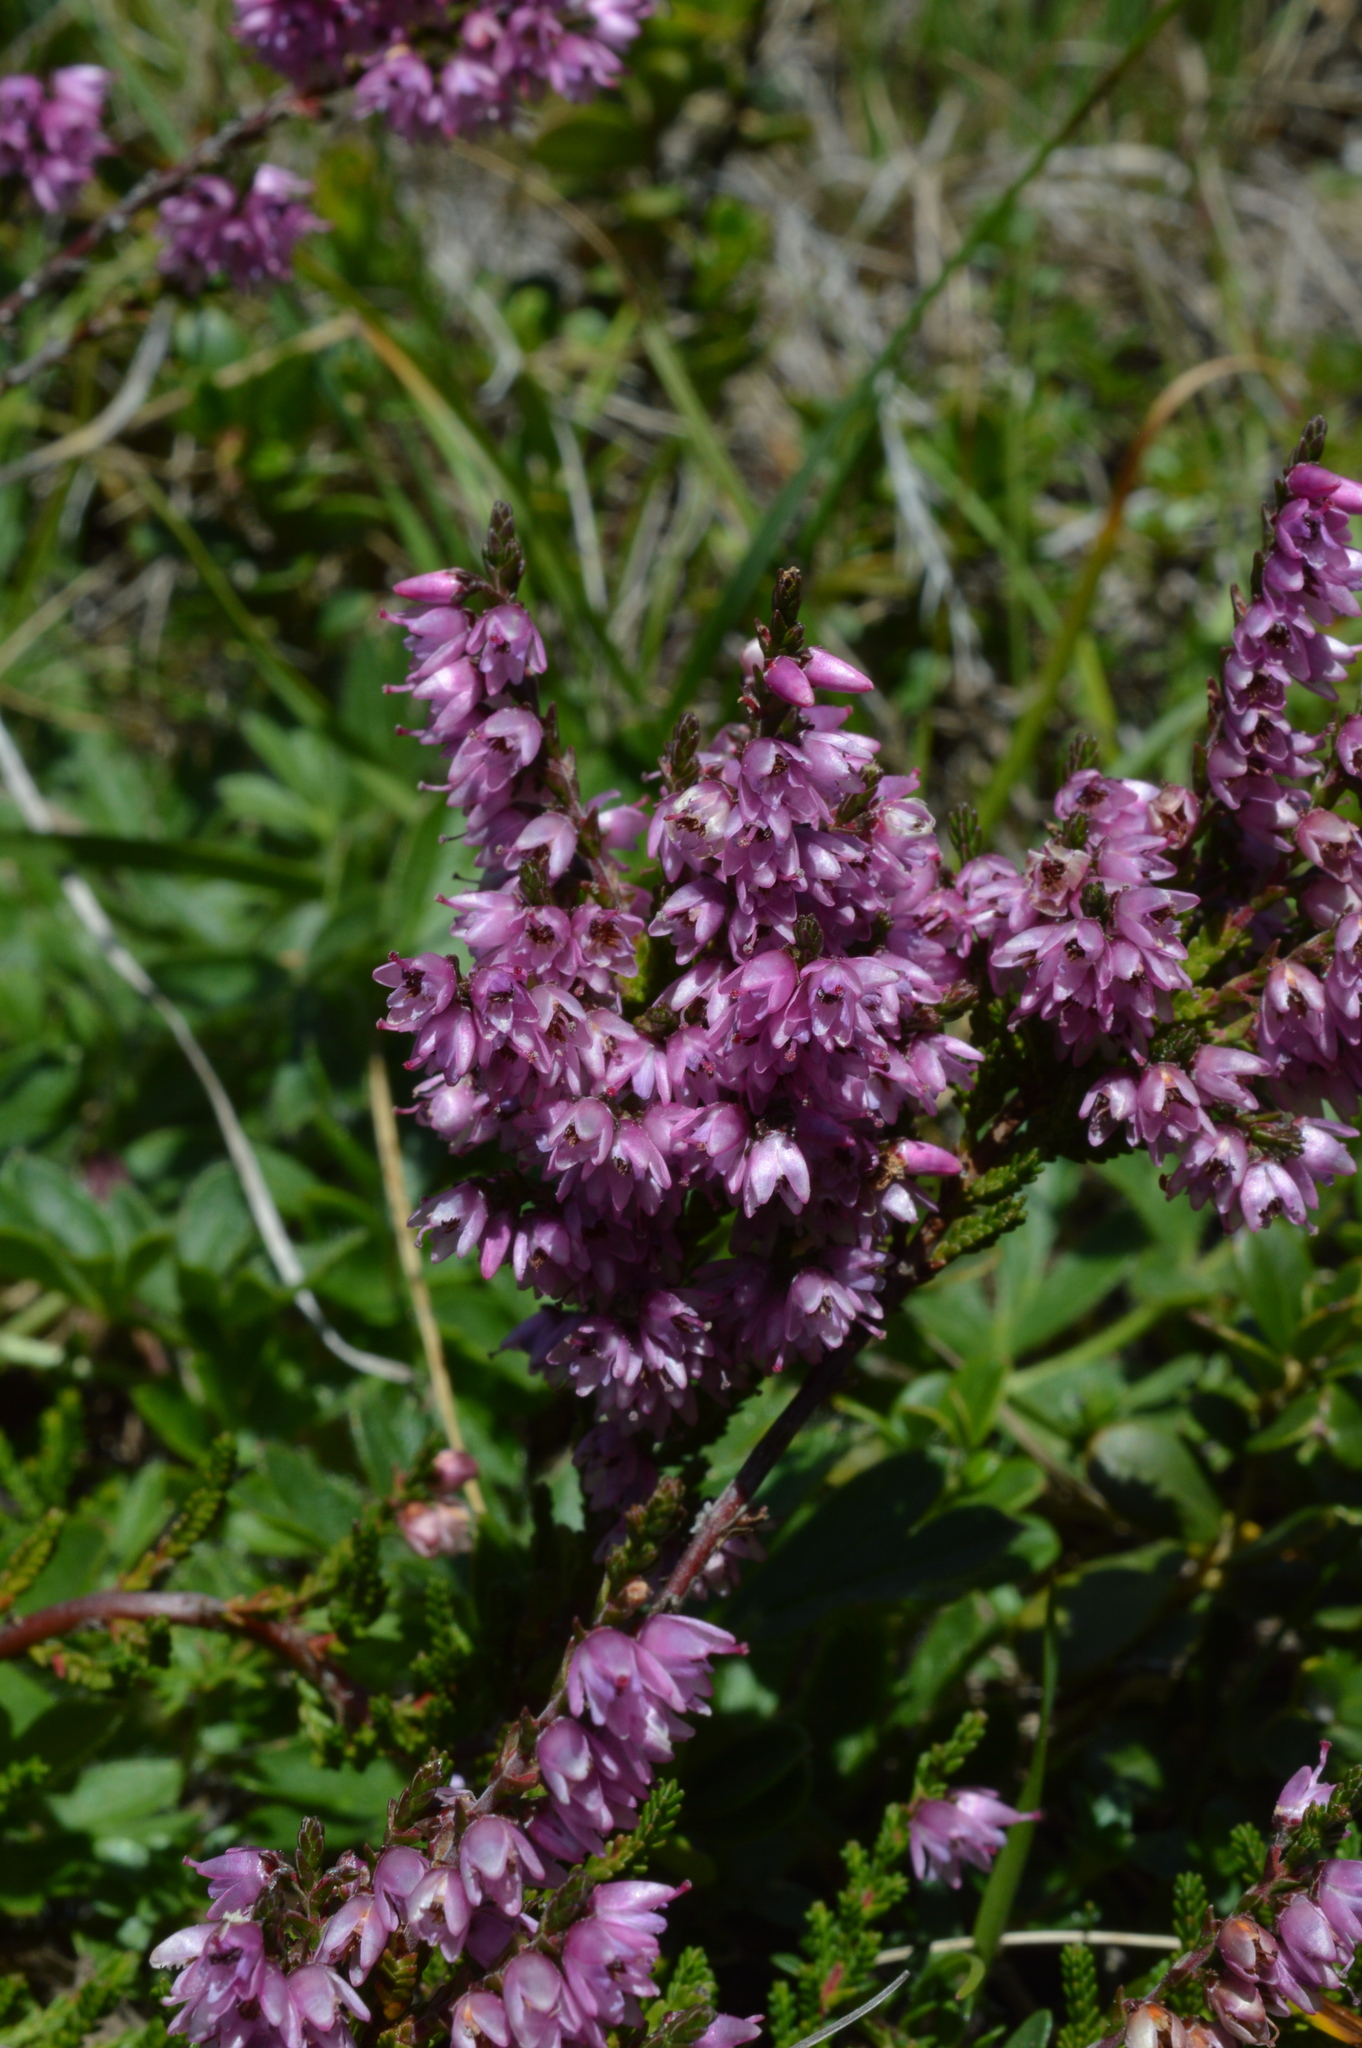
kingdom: Plantae
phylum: Tracheophyta
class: Magnoliopsida
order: Ericales
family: Ericaceae
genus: Calluna
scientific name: Calluna vulgaris
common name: Heather
